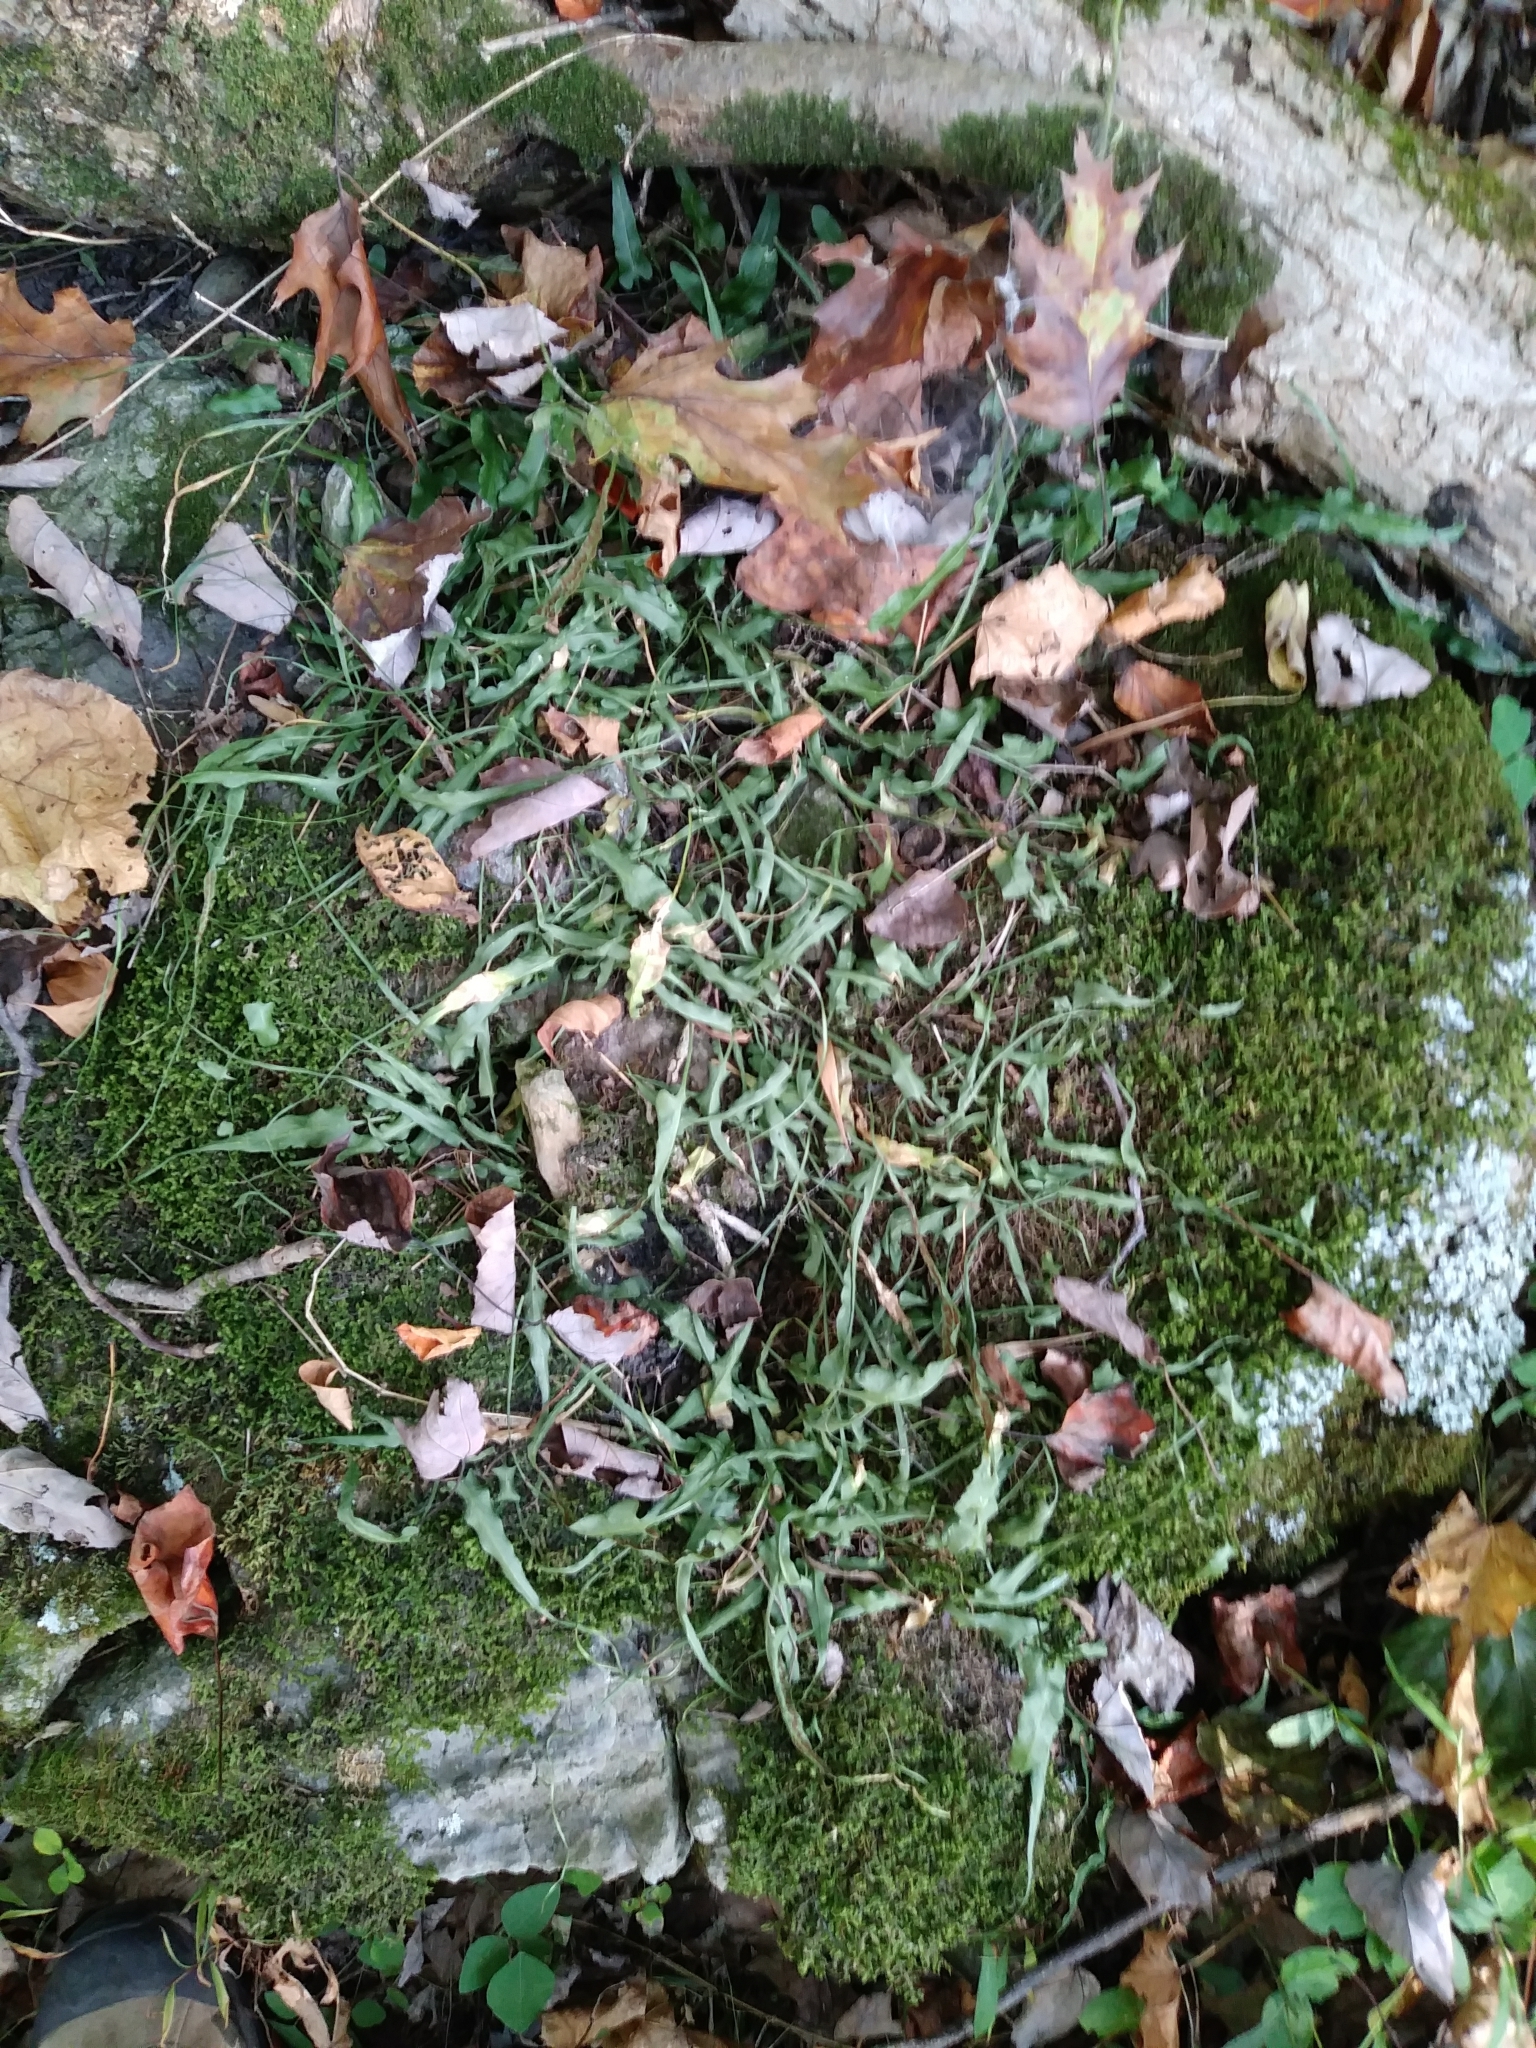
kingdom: Plantae
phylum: Tracheophyta
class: Polypodiopsida
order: Polypodiales
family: Aspleniaceae
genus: Asplenium
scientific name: Asplenium rhizophyllum
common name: Walking fern
